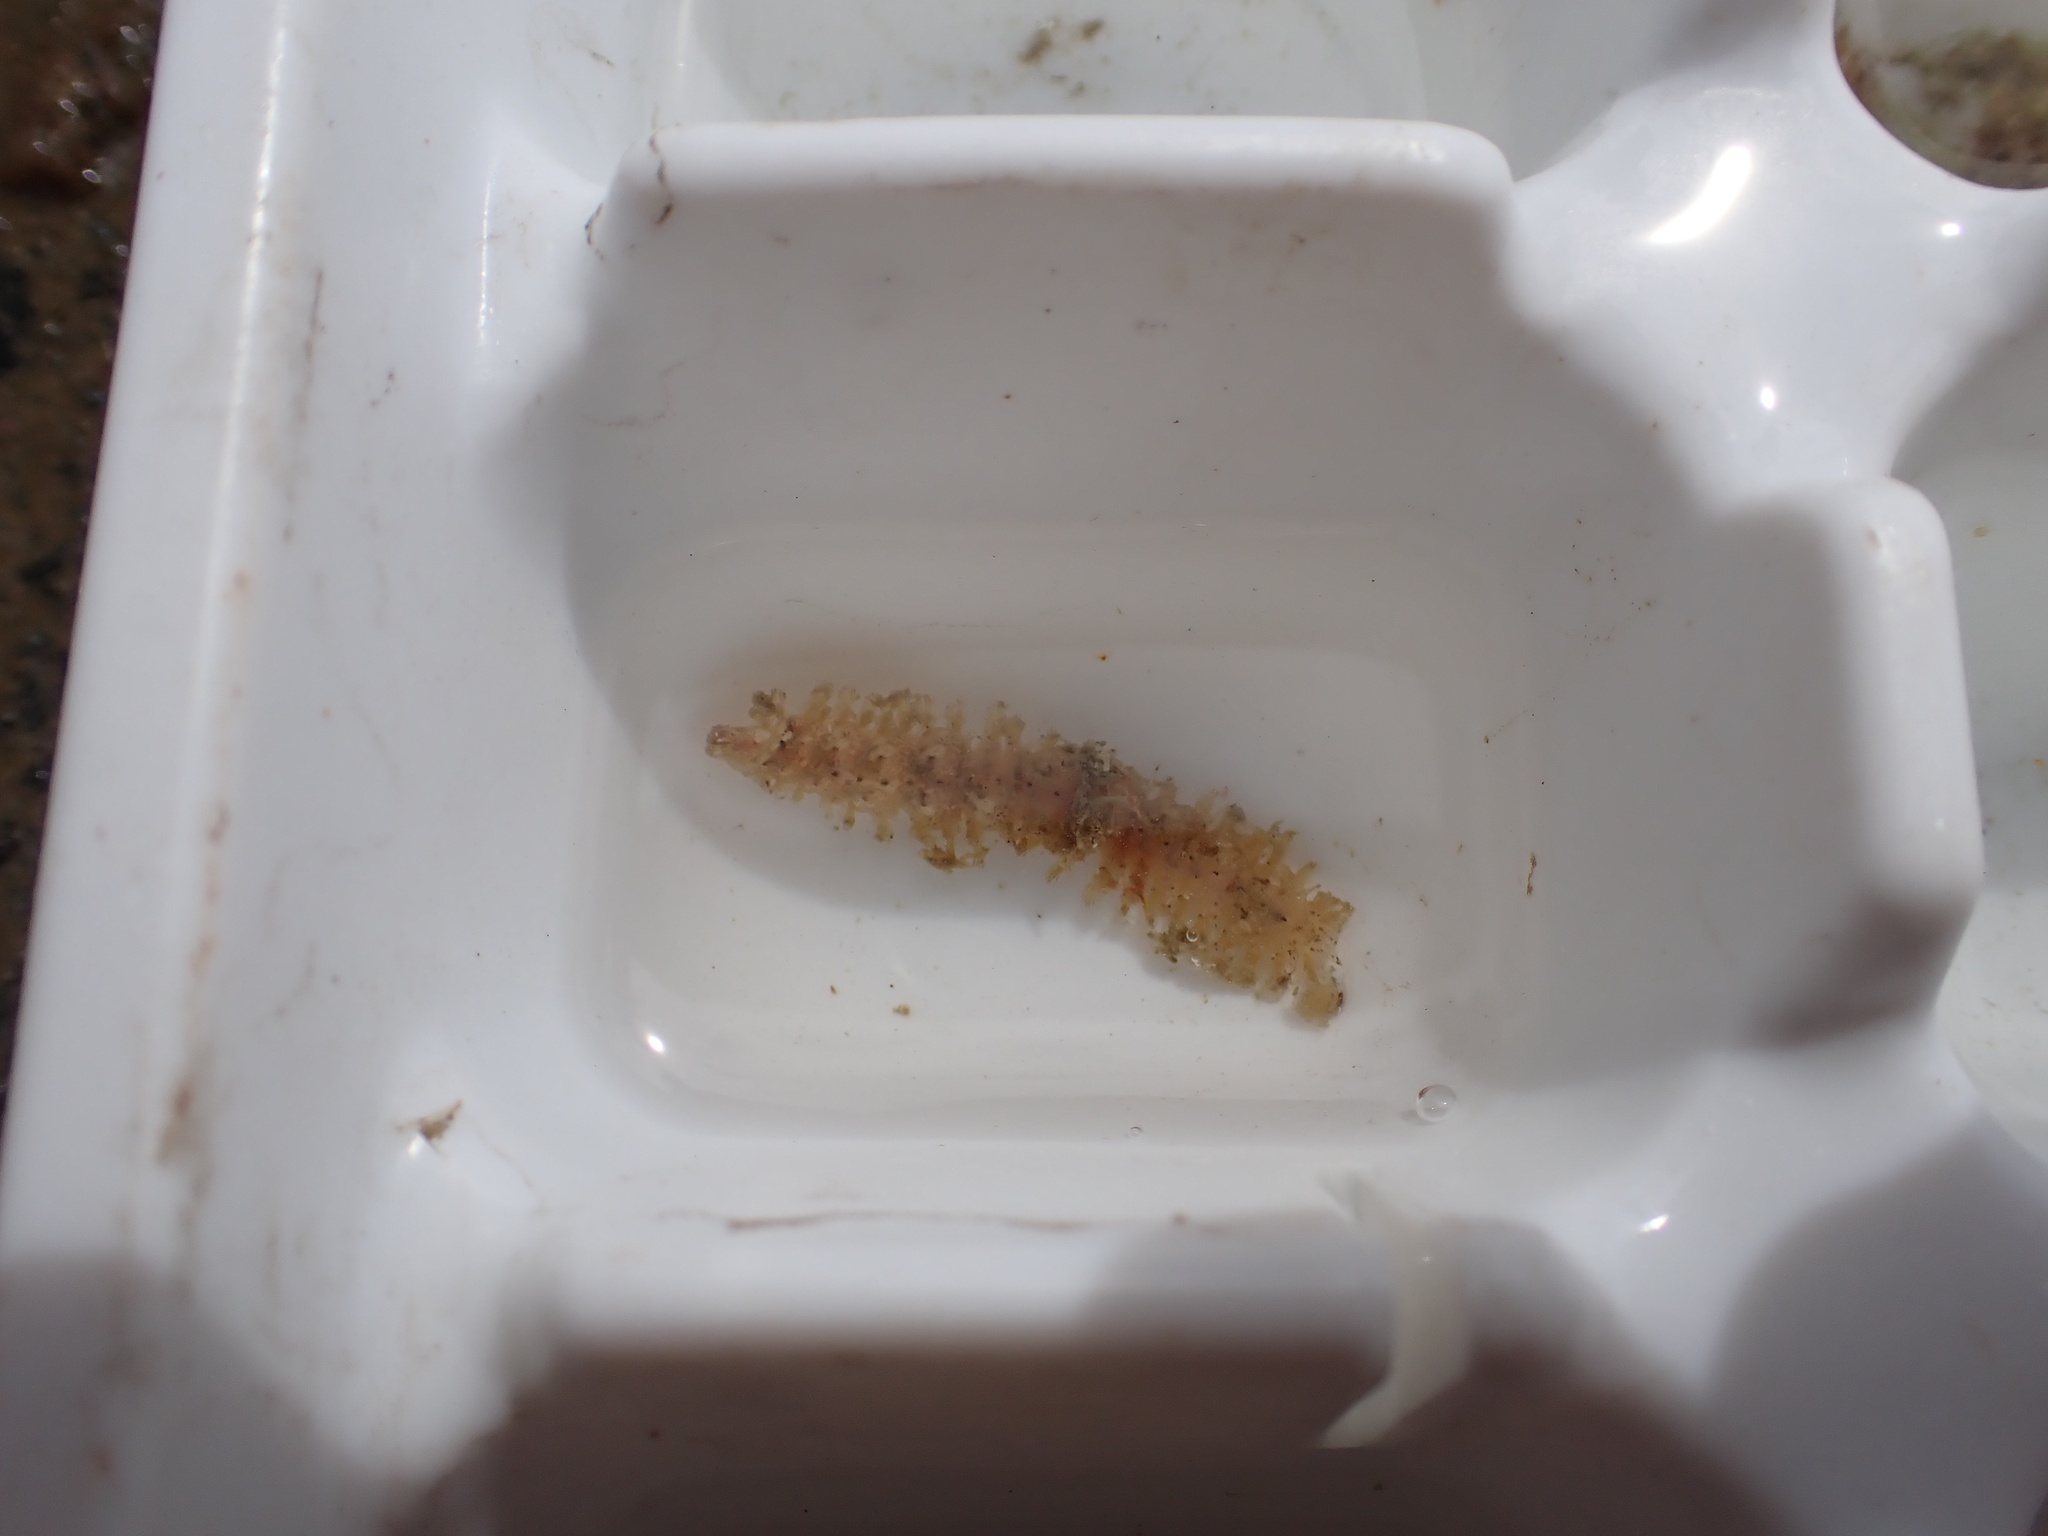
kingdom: Animalia
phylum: Annelida
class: Polychaeta
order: Phyllodocida
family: Polynoidae
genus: Thormora
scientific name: Thormora argus
